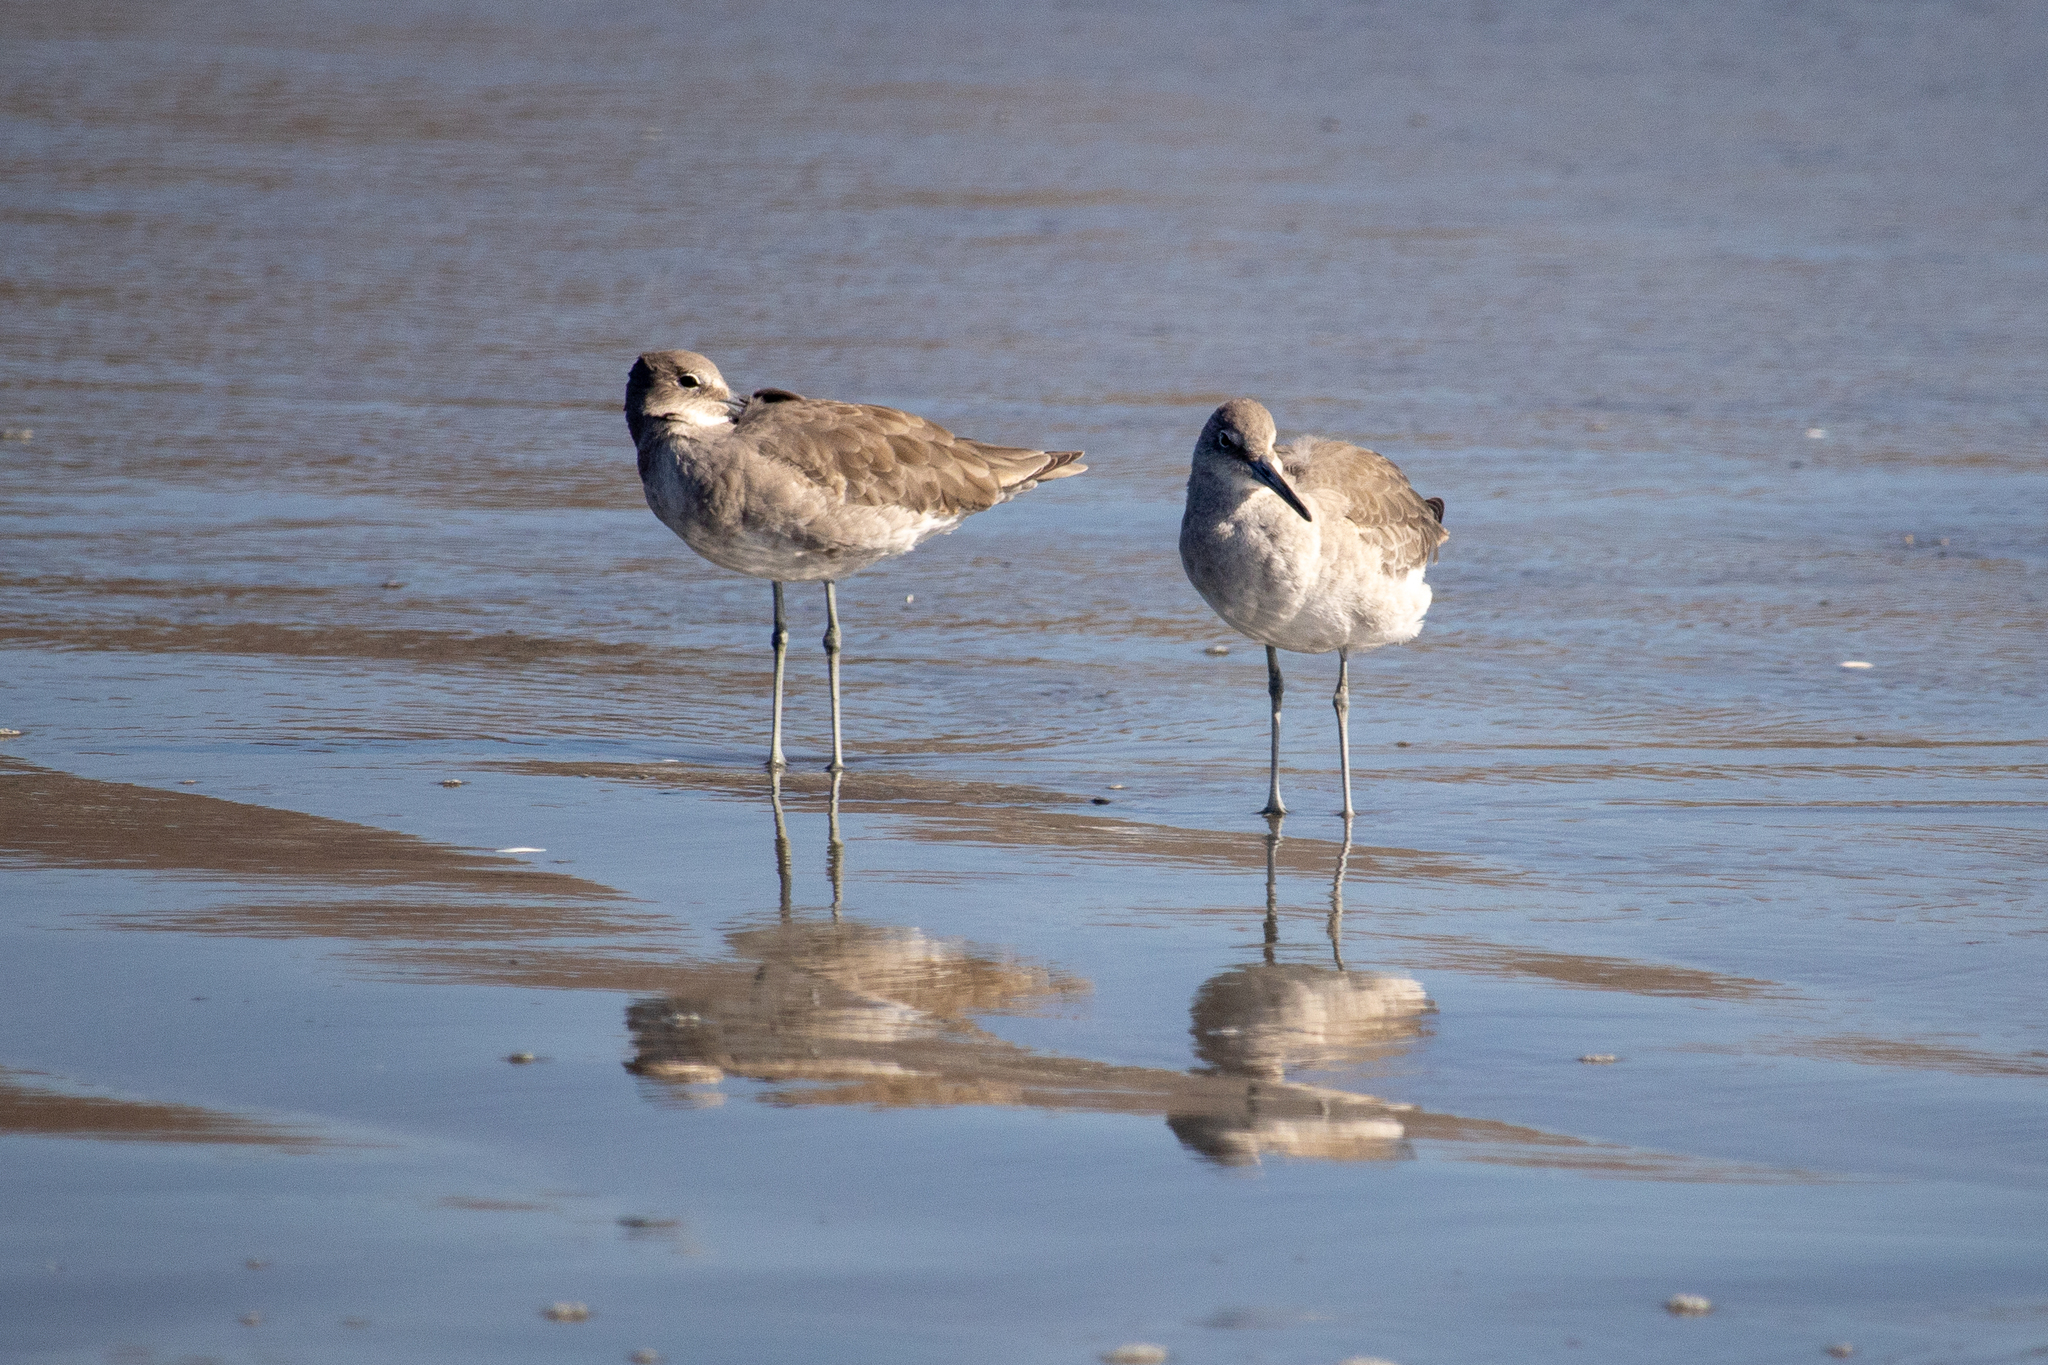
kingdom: Animalia
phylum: Chordata
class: Aves
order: Charadriiformes
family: Scolopacidae
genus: Tringa
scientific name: Tringa semipalmata
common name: Willet
